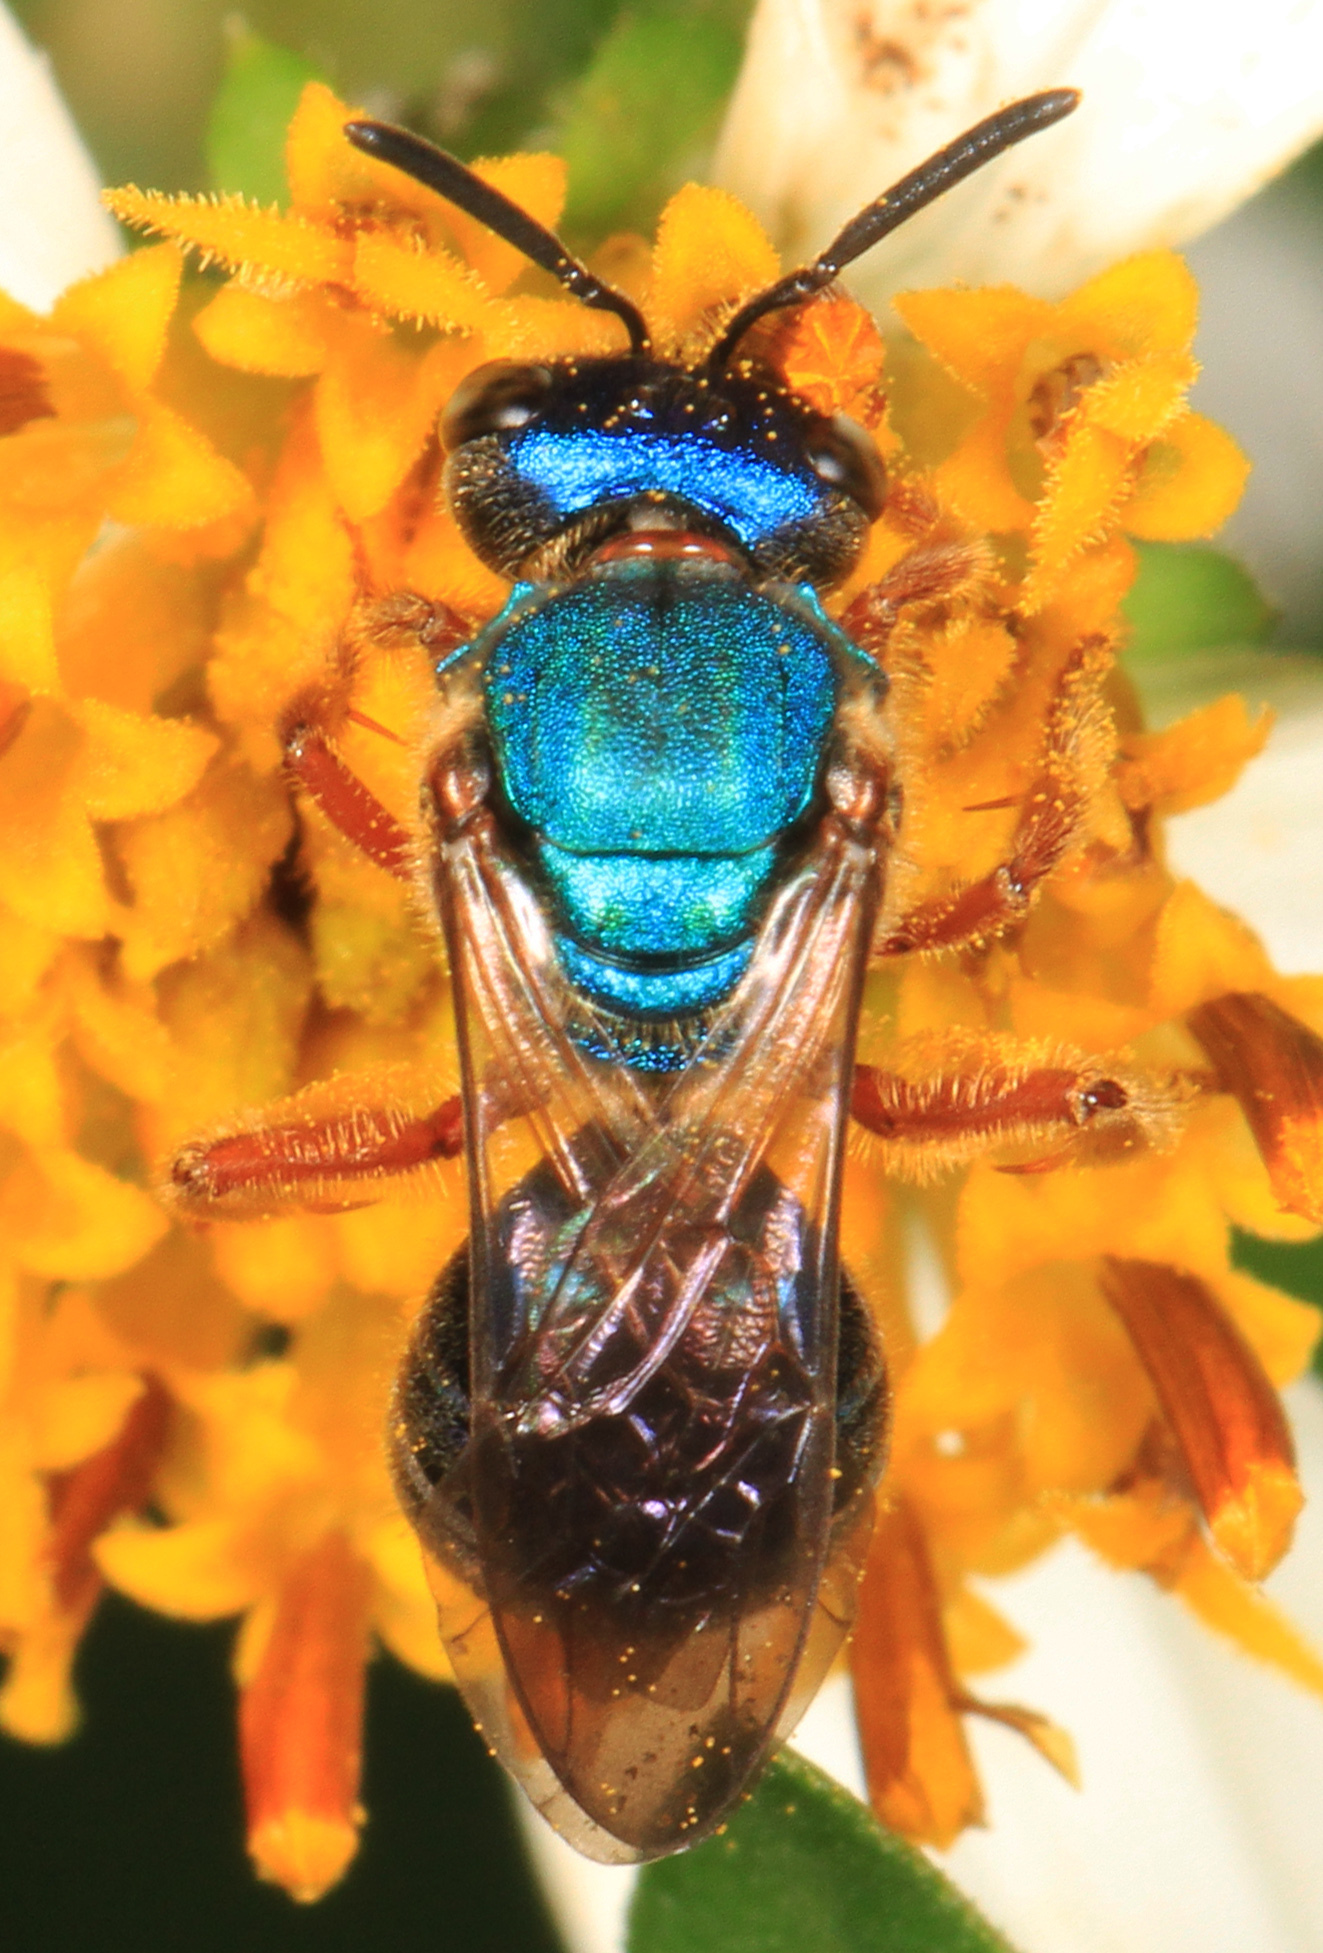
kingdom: Animalia
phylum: Arthropoda
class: Insecta
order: Hymenoptera
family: Halictidae
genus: Augochlora
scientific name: Augochlora pura
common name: Pure green sweat bee
